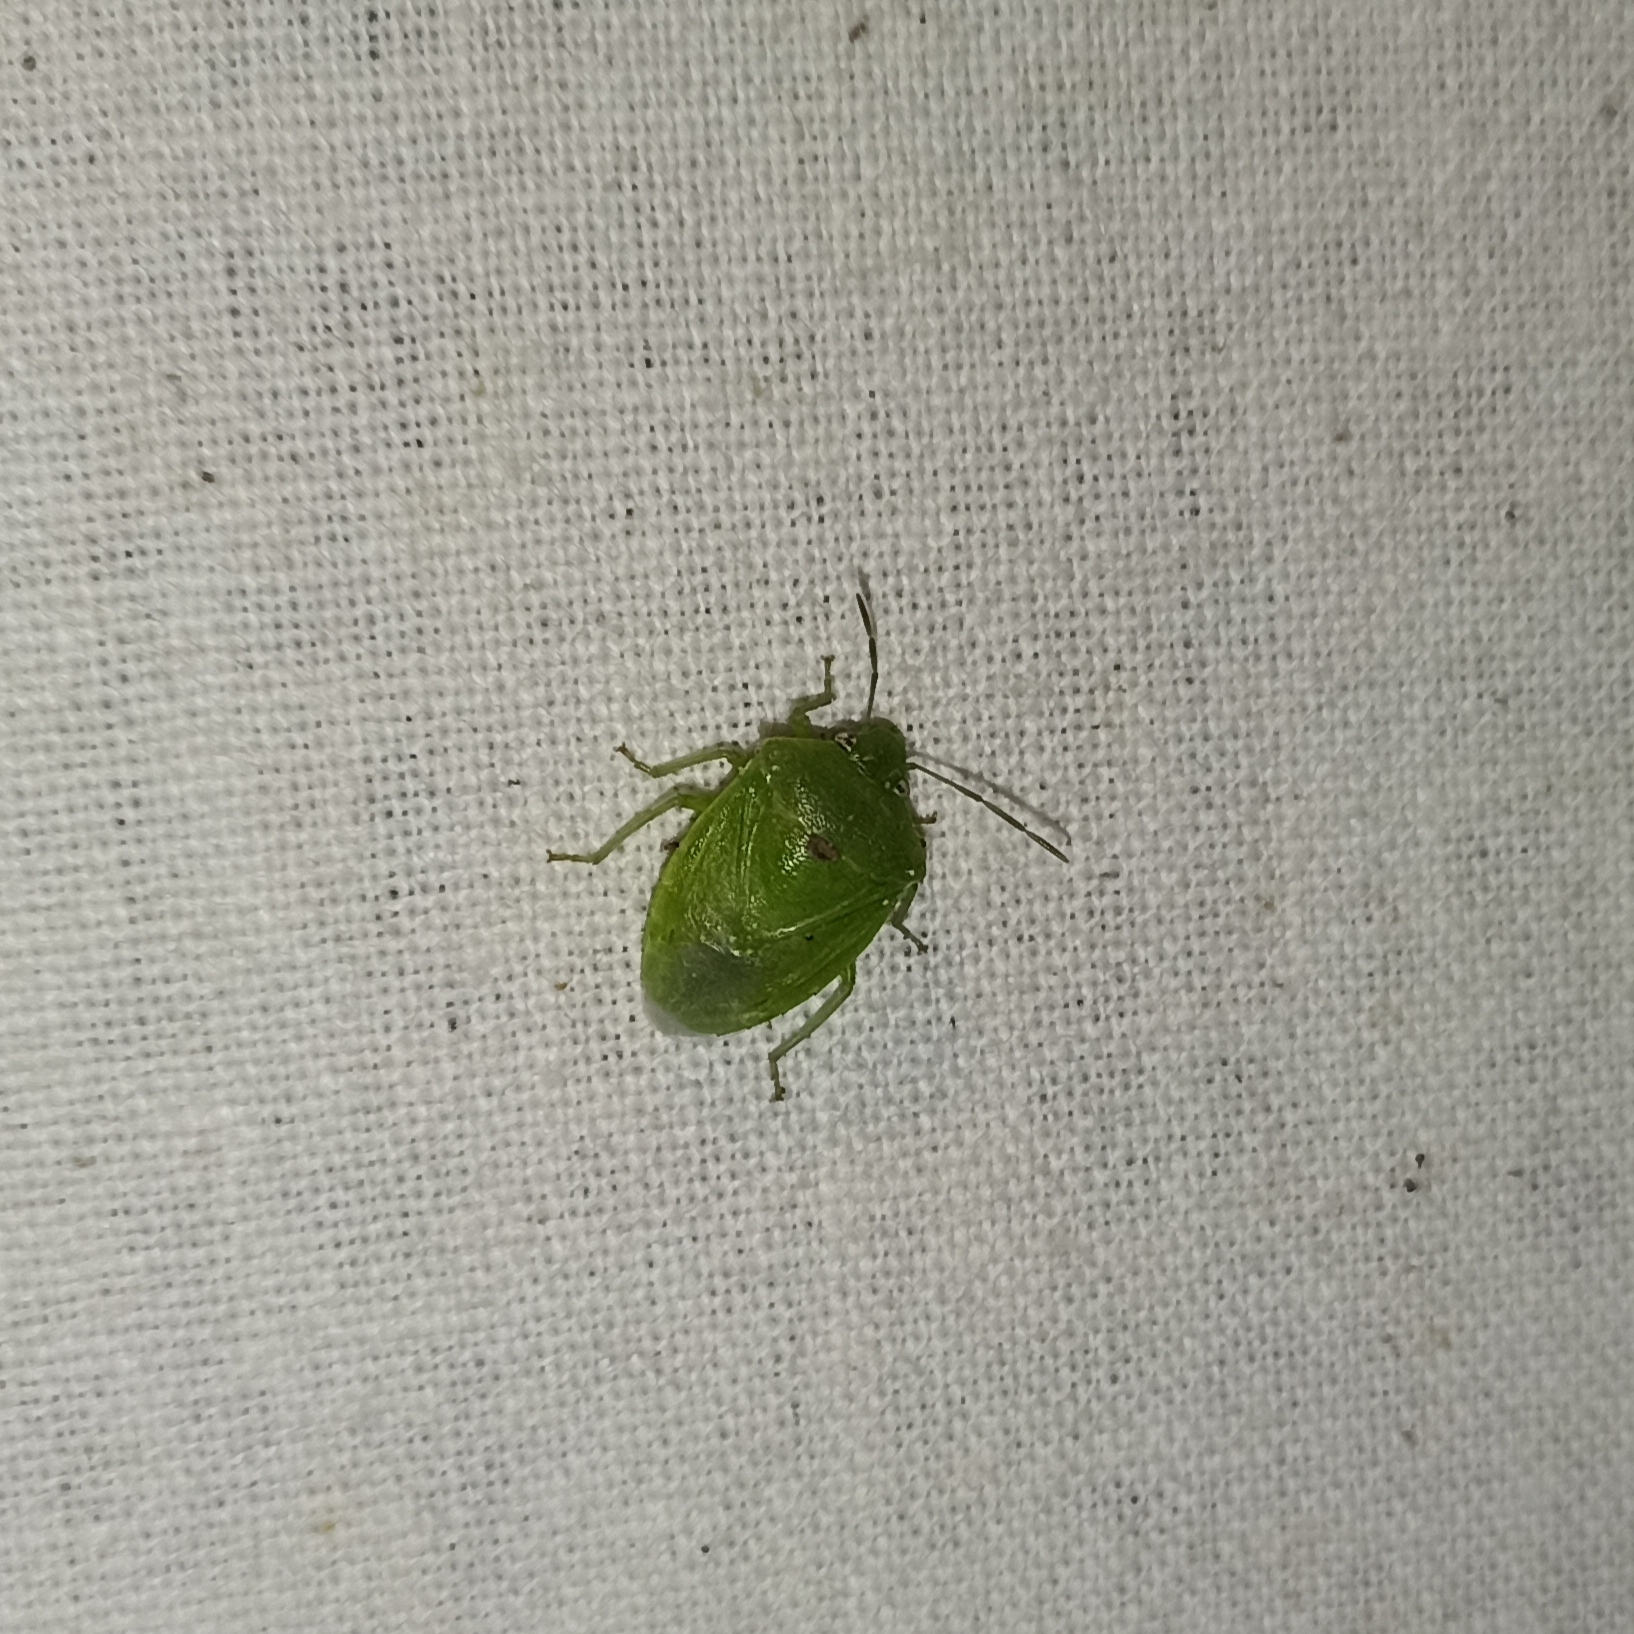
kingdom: Animalia
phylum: Arthropoda
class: Insecta
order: Hemiptera
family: Pentatomidae
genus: Acrosternum
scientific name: Acrosternum gramineum
